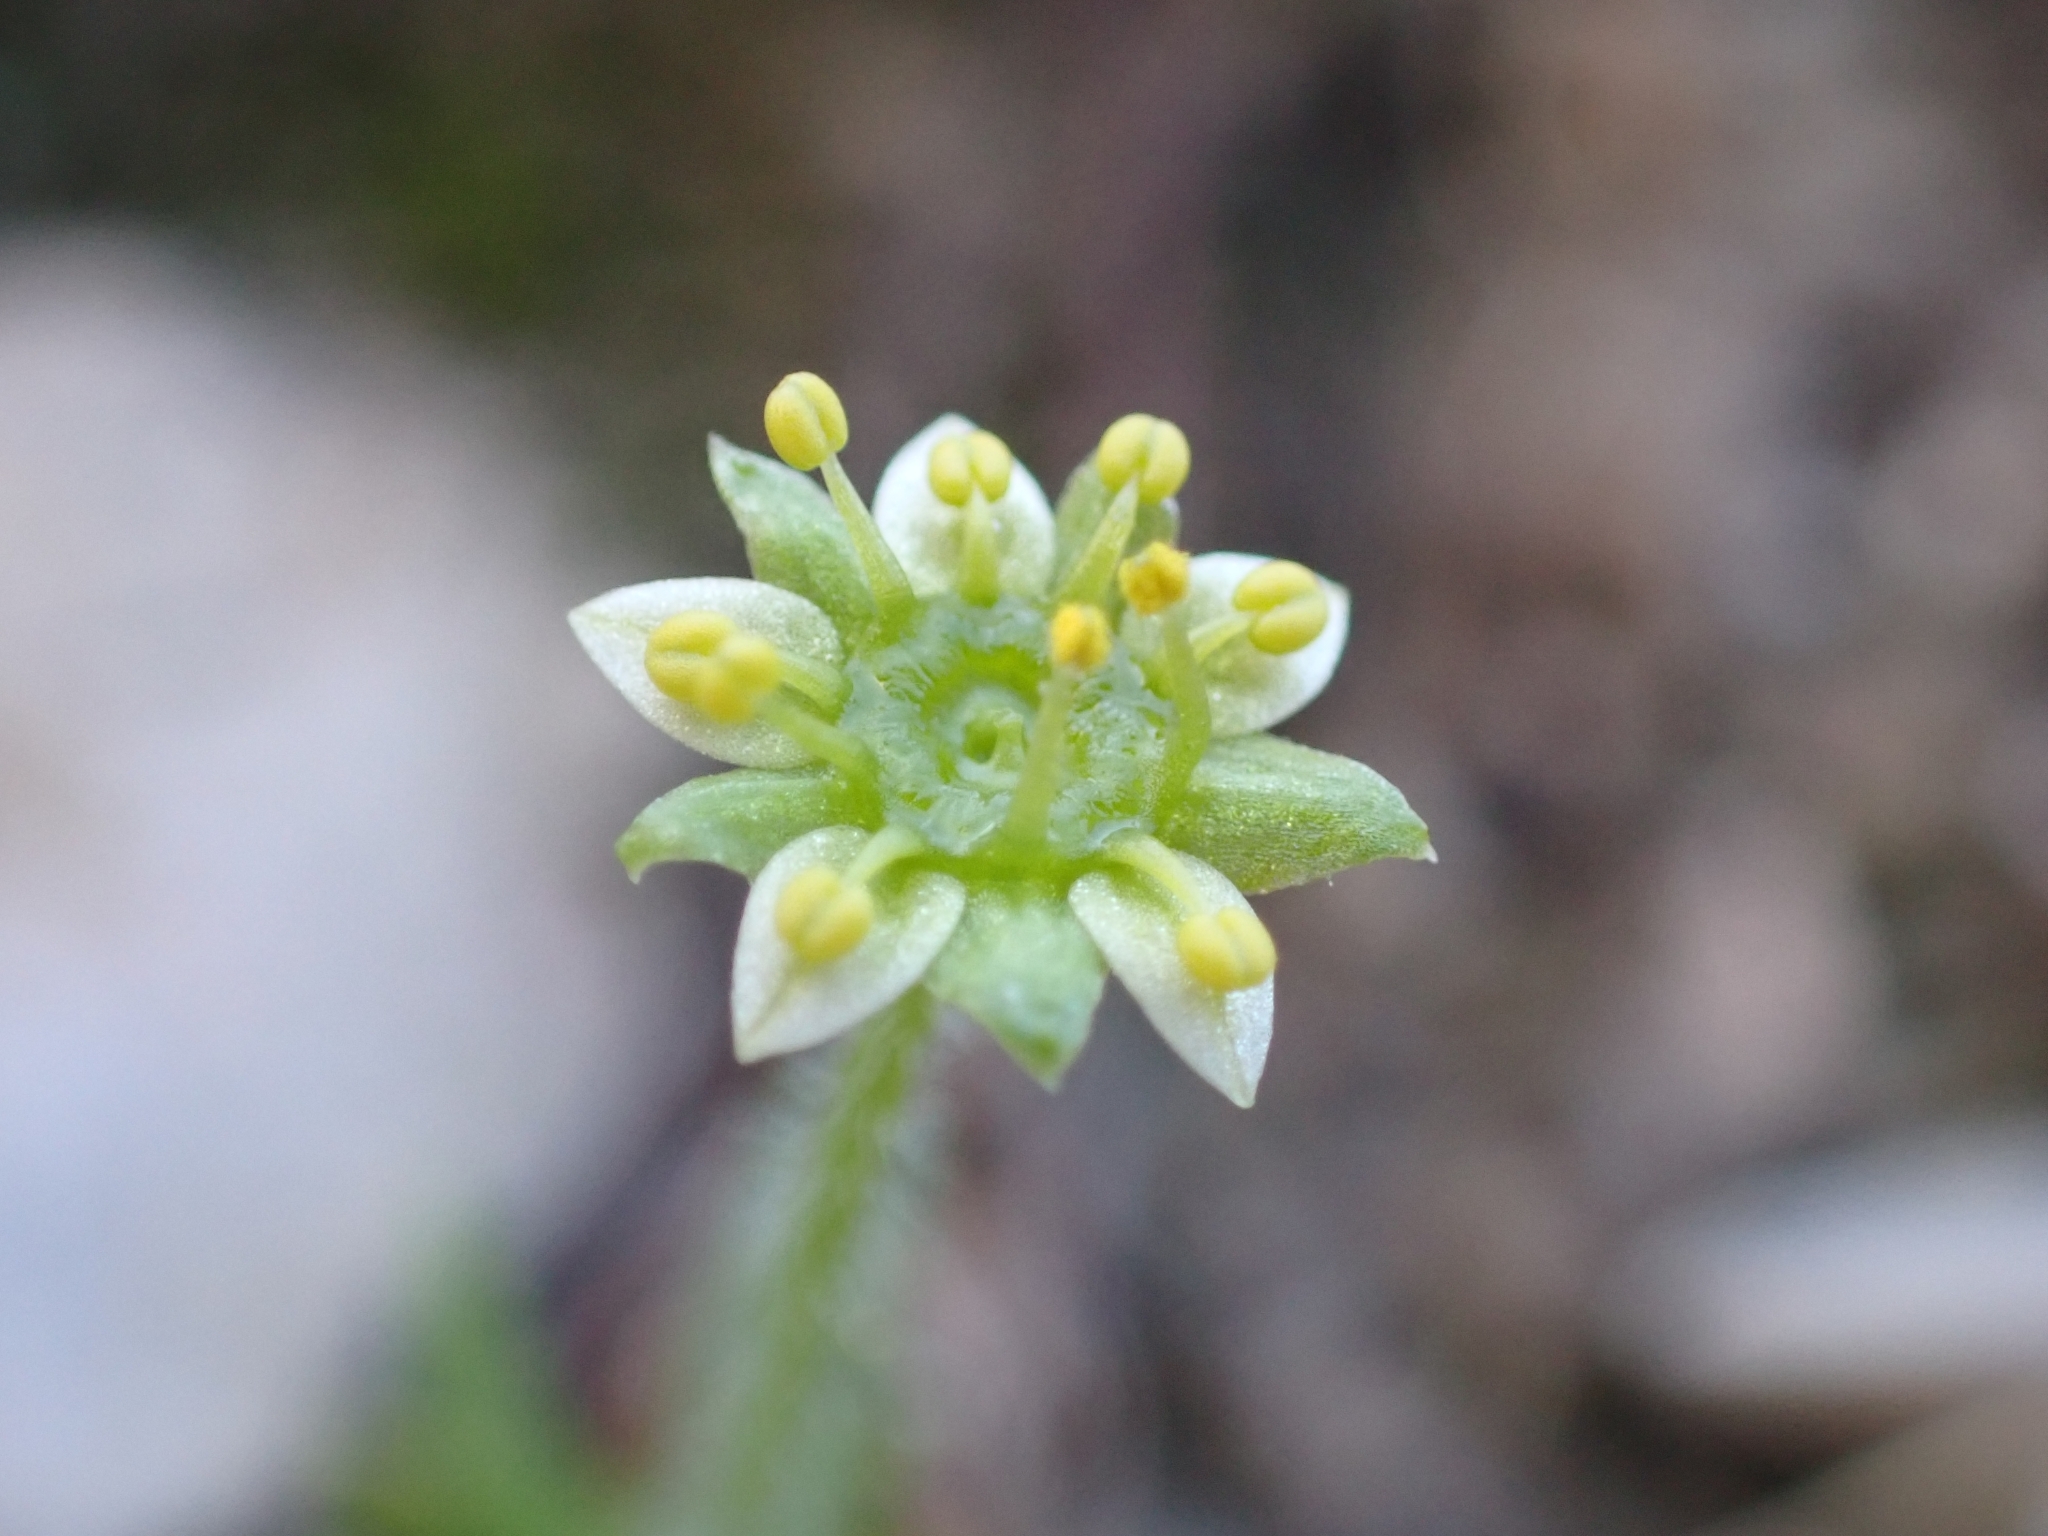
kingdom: Plantae
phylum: Tracheophyta
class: Magnoliopsida
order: Saxifragales
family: Saxifragaceae
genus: Saxifraga
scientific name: Saxifraga sedoides
